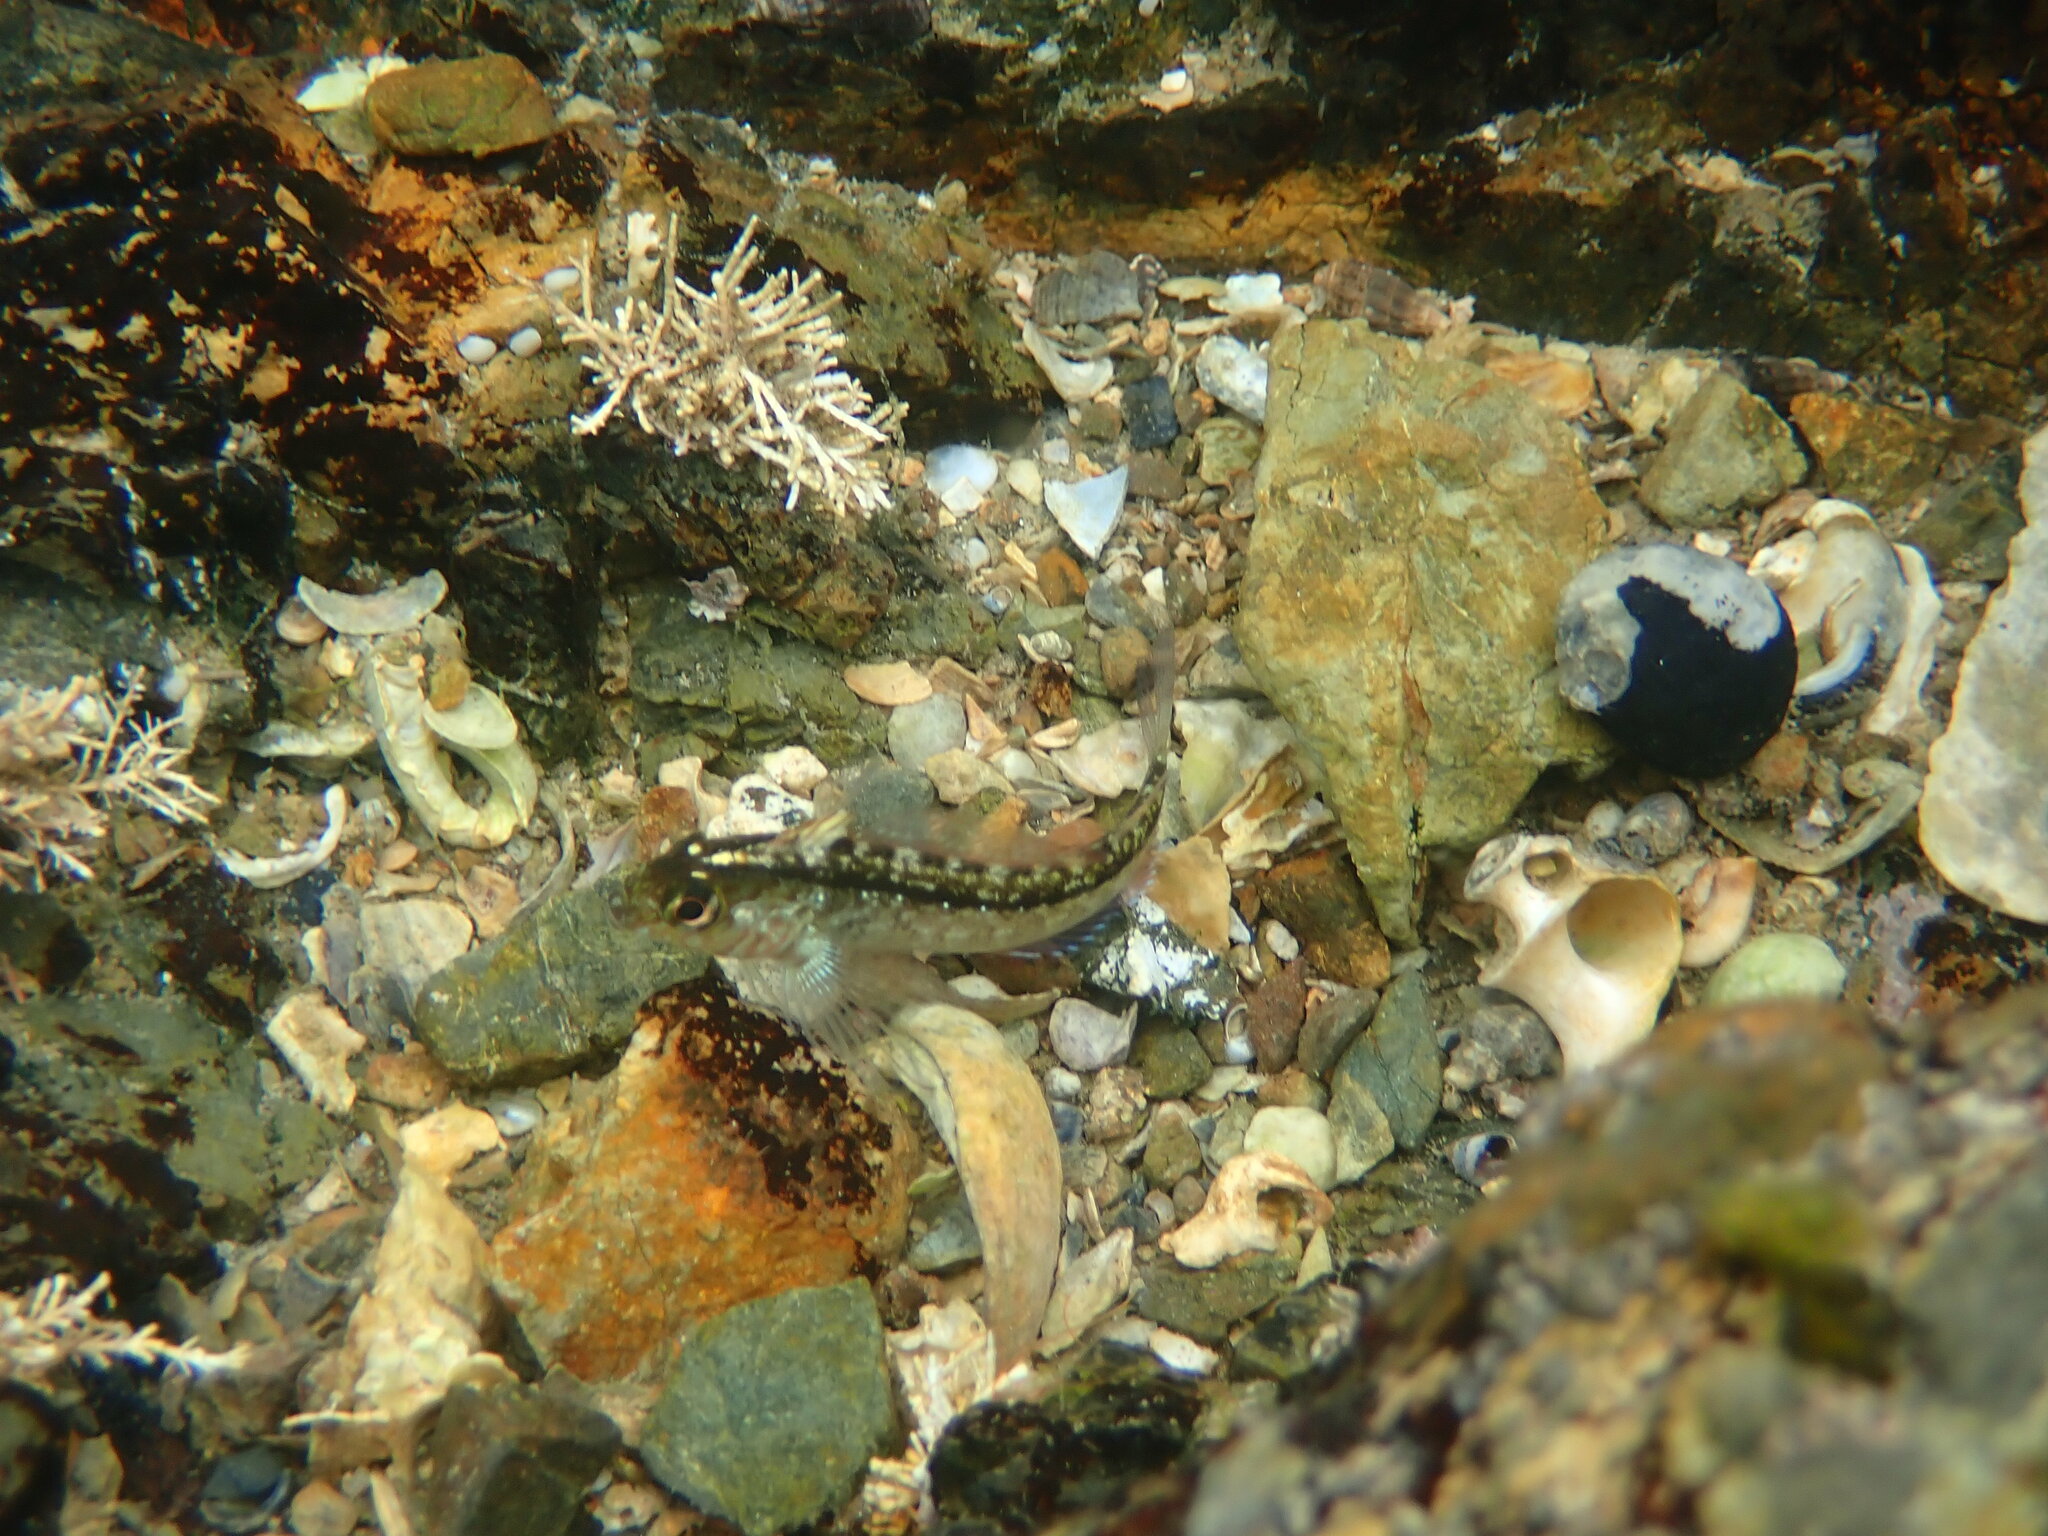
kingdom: Animalia
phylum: Chordata
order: Perciformes
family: Tripterygiidae
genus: Forsterygion
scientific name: Forsterygion lapillum
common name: Common triplefin
